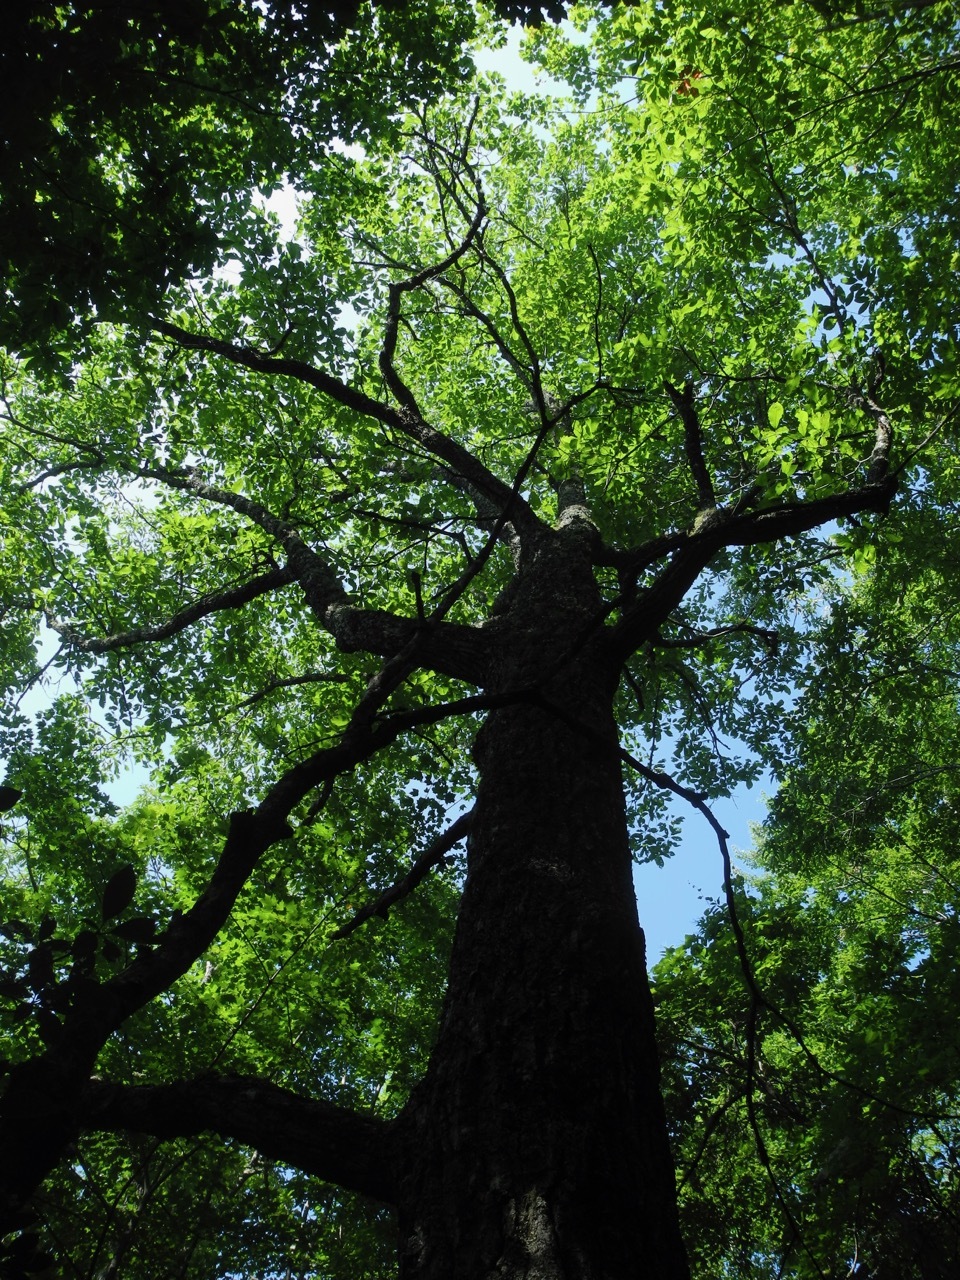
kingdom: Plantae
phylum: Tracheophyta
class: Magnoliopsida
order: Fagales
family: Fagaceae
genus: Quercus
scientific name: Quercus montana
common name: Chestnut oak
